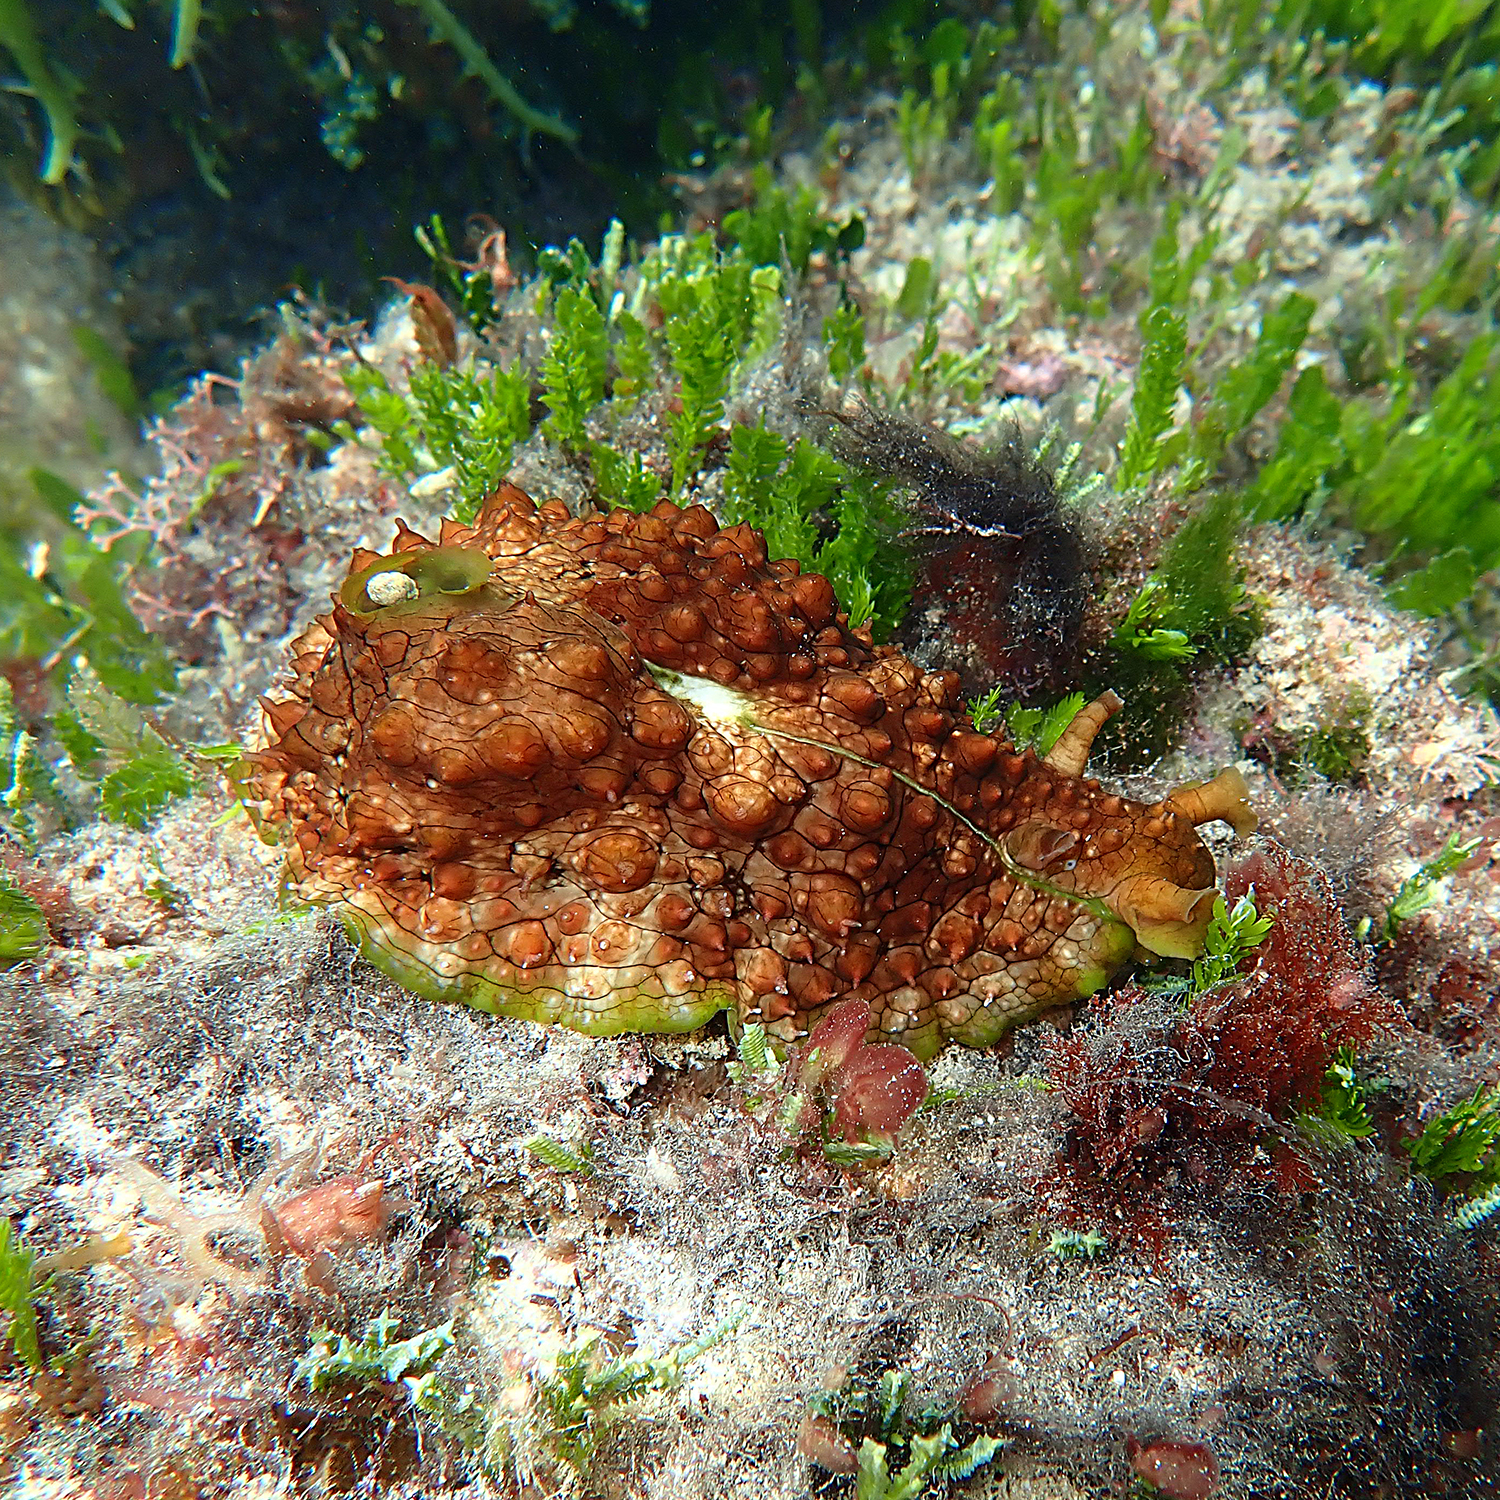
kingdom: Animalia
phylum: Mollusca
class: Gastropoda
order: Aplysiida
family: Aplysiidae
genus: Dolabrifera
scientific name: Dolabrifera brazieri
